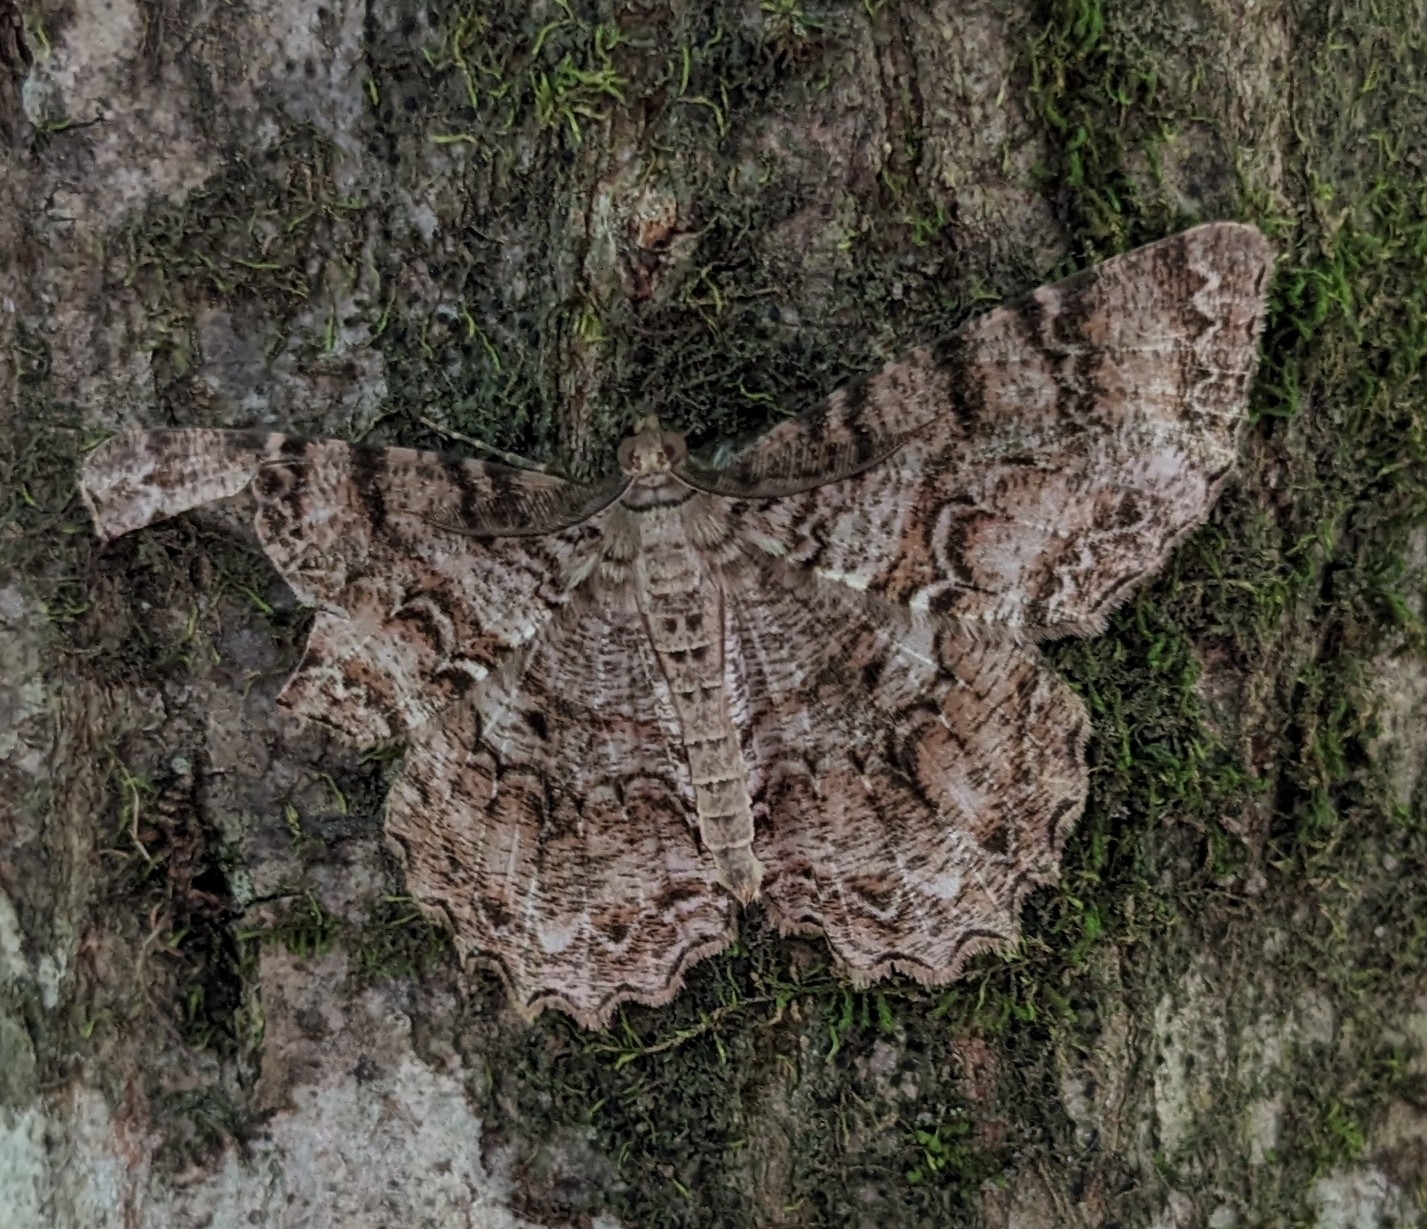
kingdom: Animalia
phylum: Arthropoda
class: Insecta
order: Lepidoptera
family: Geometridae
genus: Epimecis
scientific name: Epimecis hortaria
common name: Tulip-tree beauty
